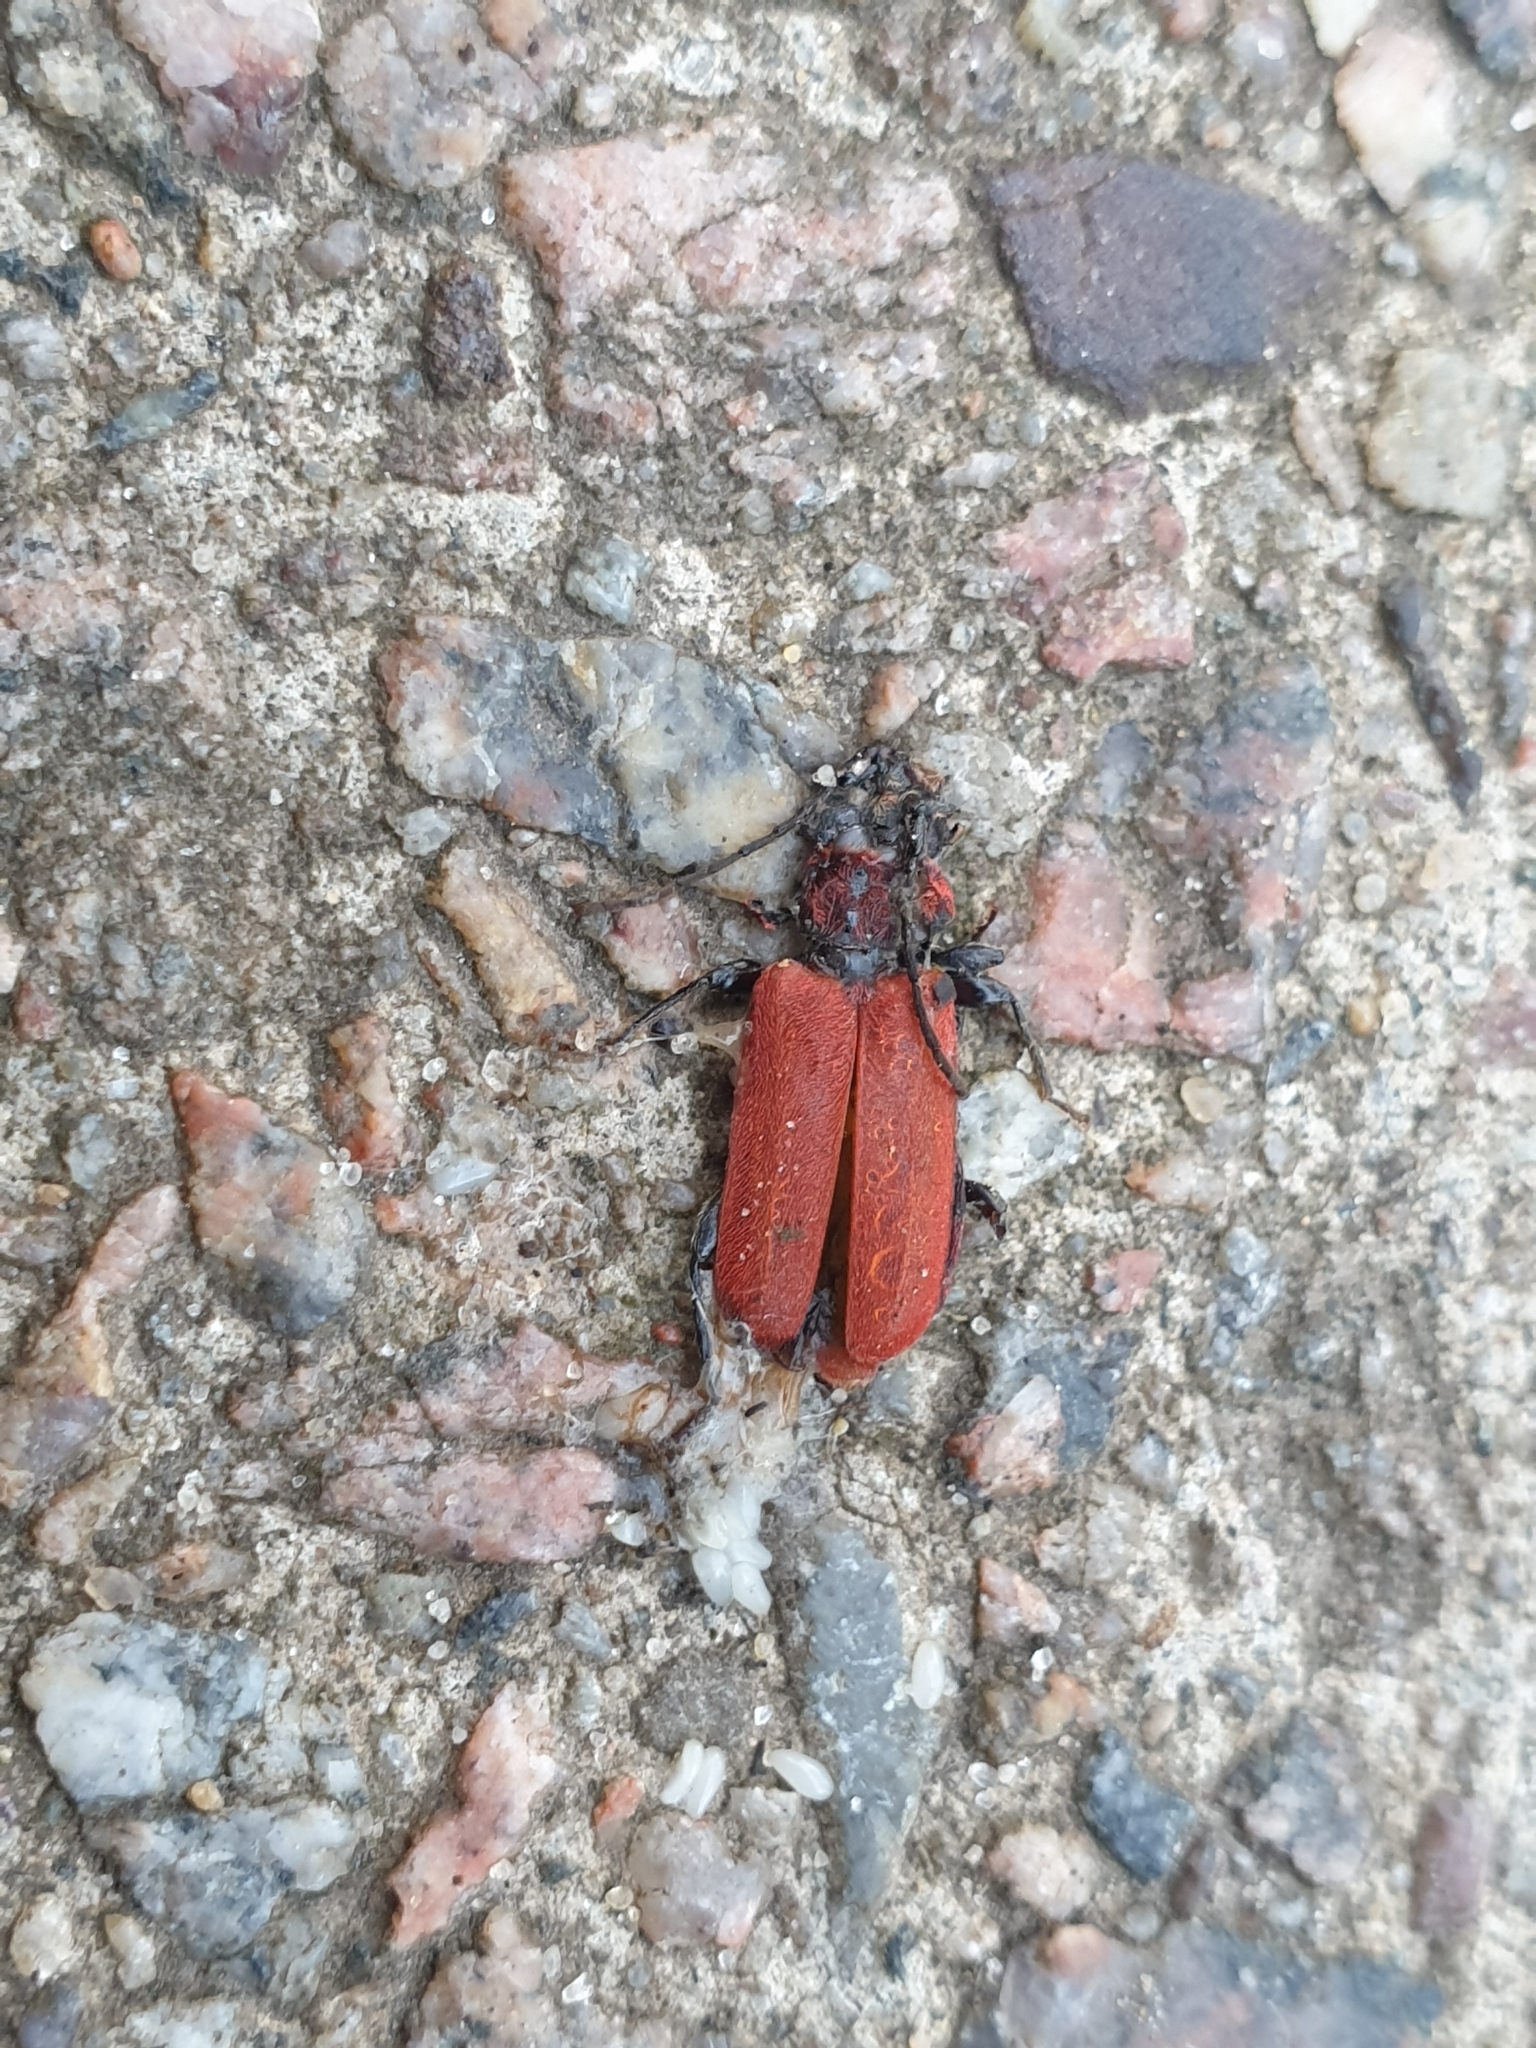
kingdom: Animalia
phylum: Arthropoda
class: Insecta
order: Coleoptera
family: Cerambycidae
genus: Pyrrhidium
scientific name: Pyrrhidium sanguineum
